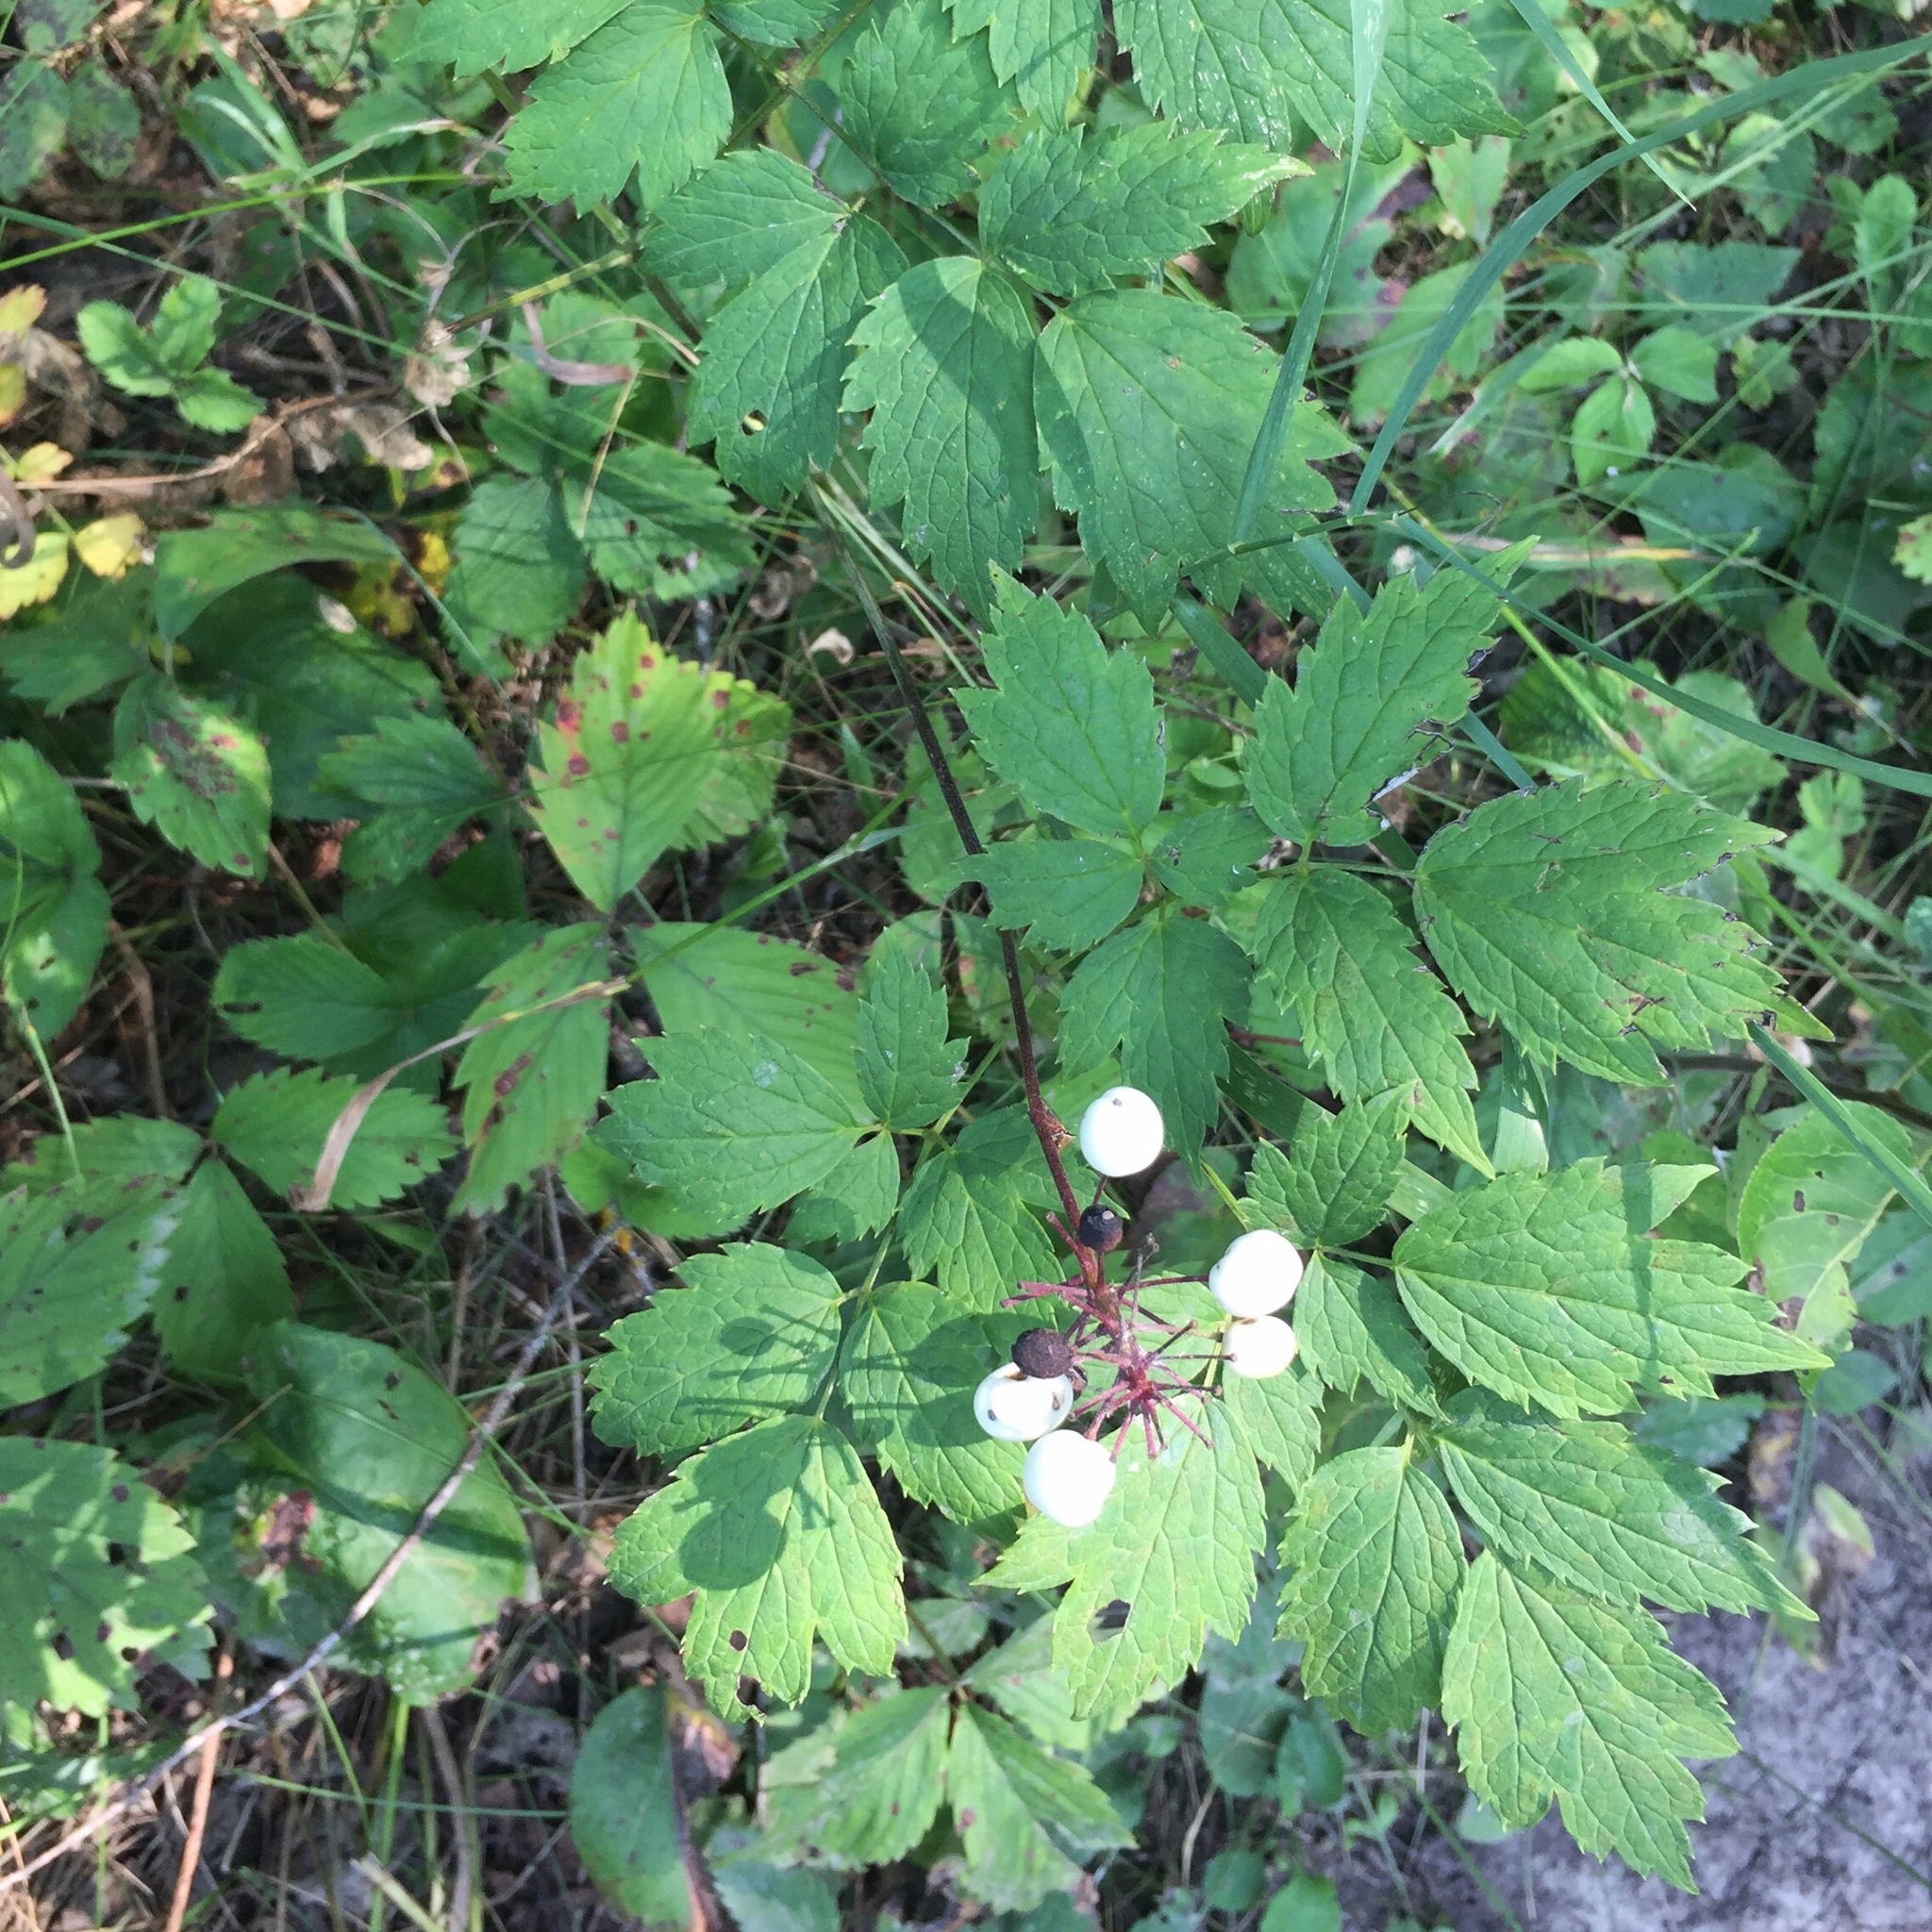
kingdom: Plantae
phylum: Tracheophyta
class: Magnoliopsida
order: Ranunculales
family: Ranunculaceae
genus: Actaea
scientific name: Actaea rubra
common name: Red baneberry
